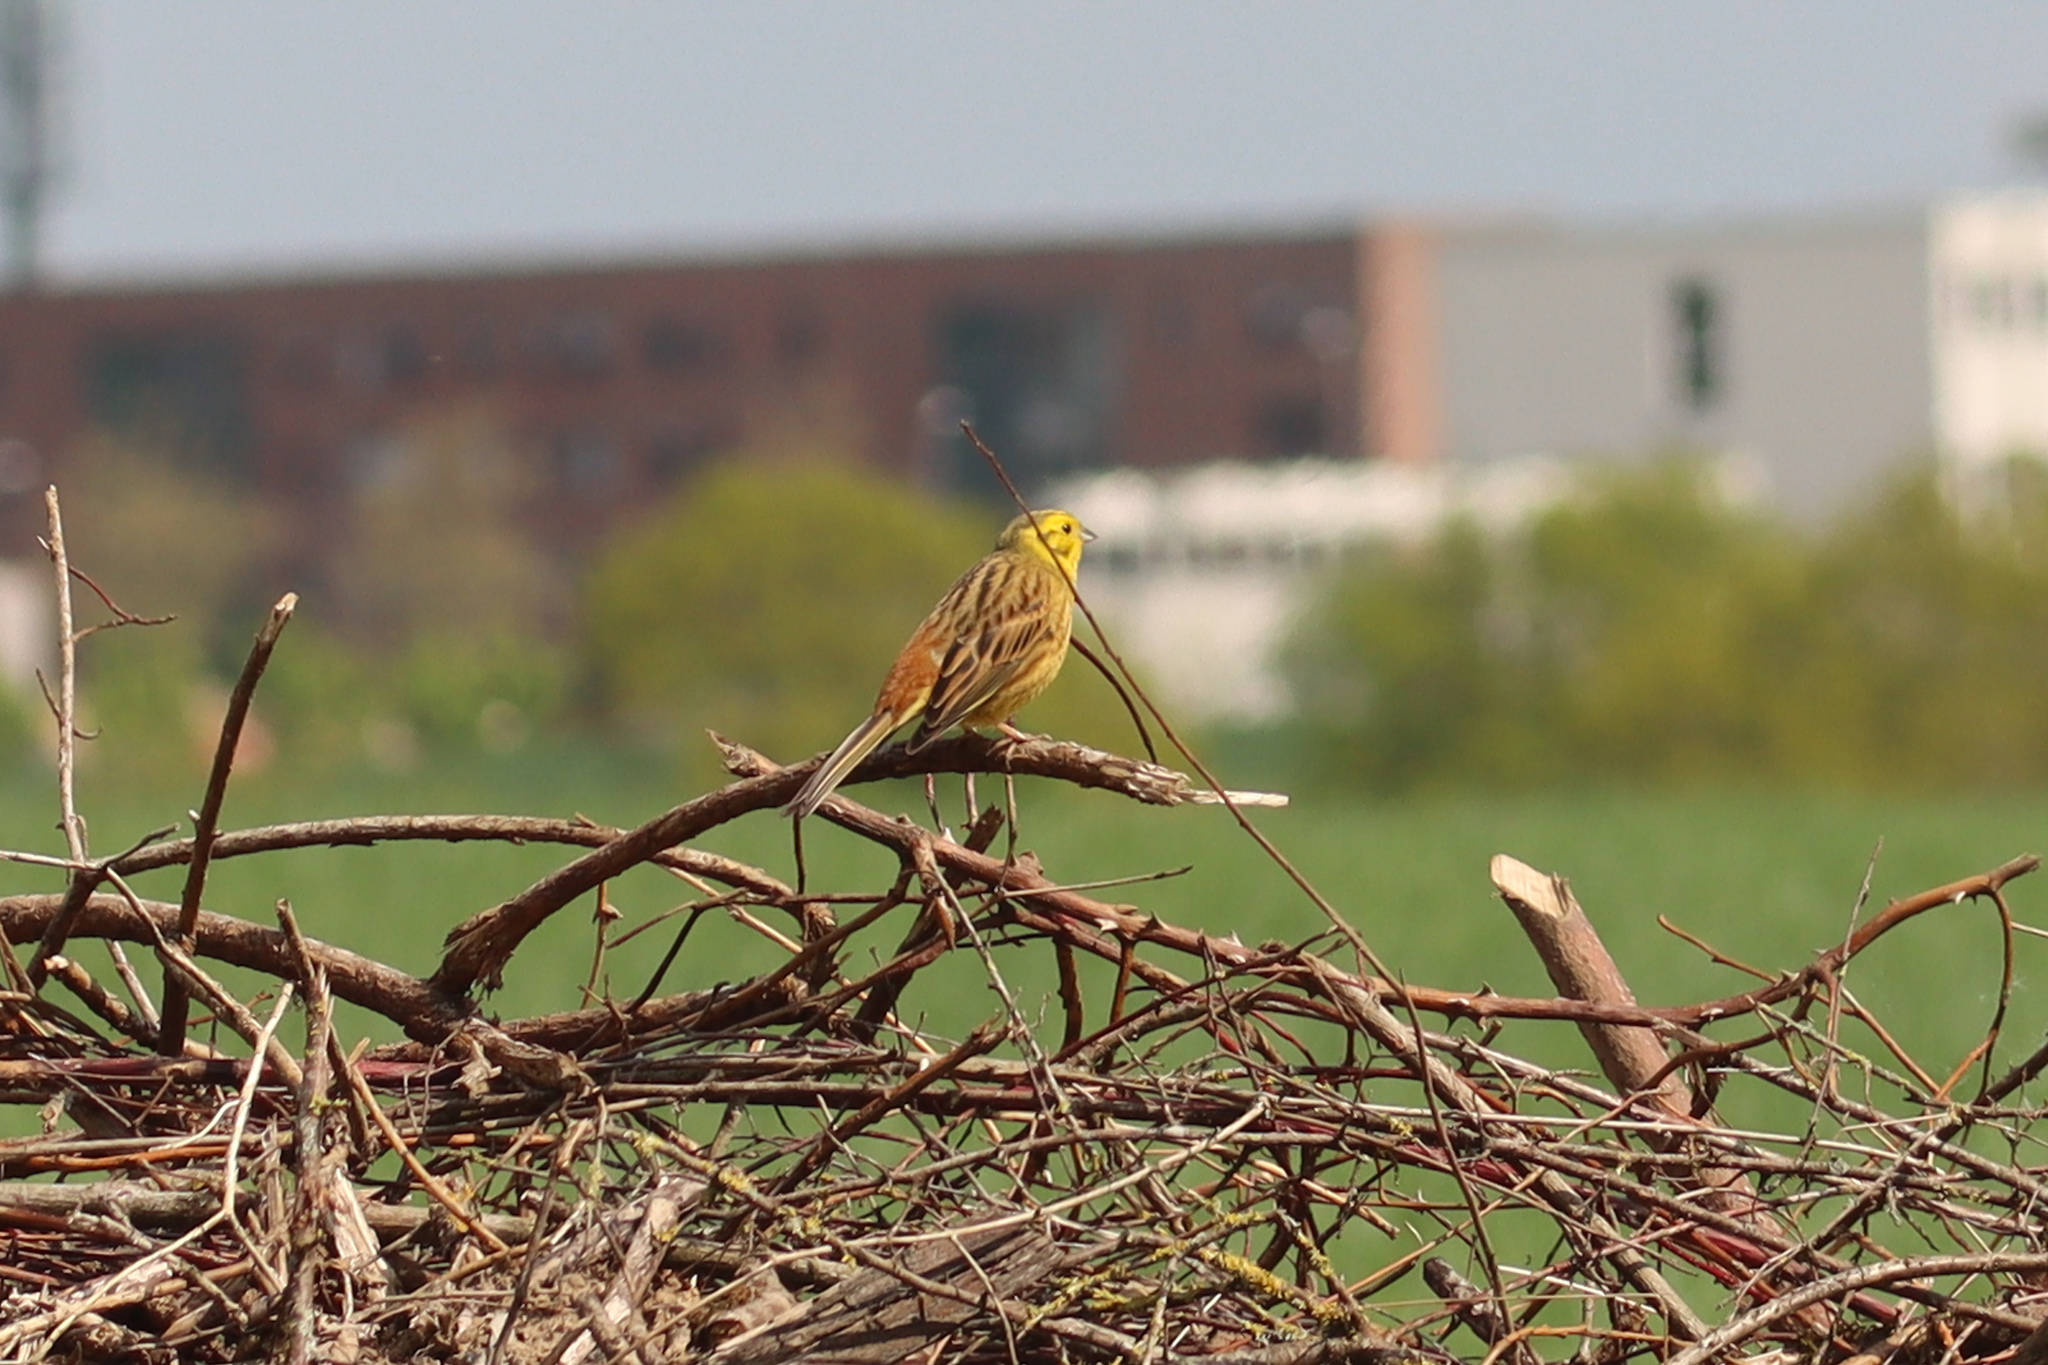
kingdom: Animalia
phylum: Chordata
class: Aves
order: Passeriformes
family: Emberizidae
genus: Emberiza
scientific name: Emberiza citrinella
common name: Yellowhammer
